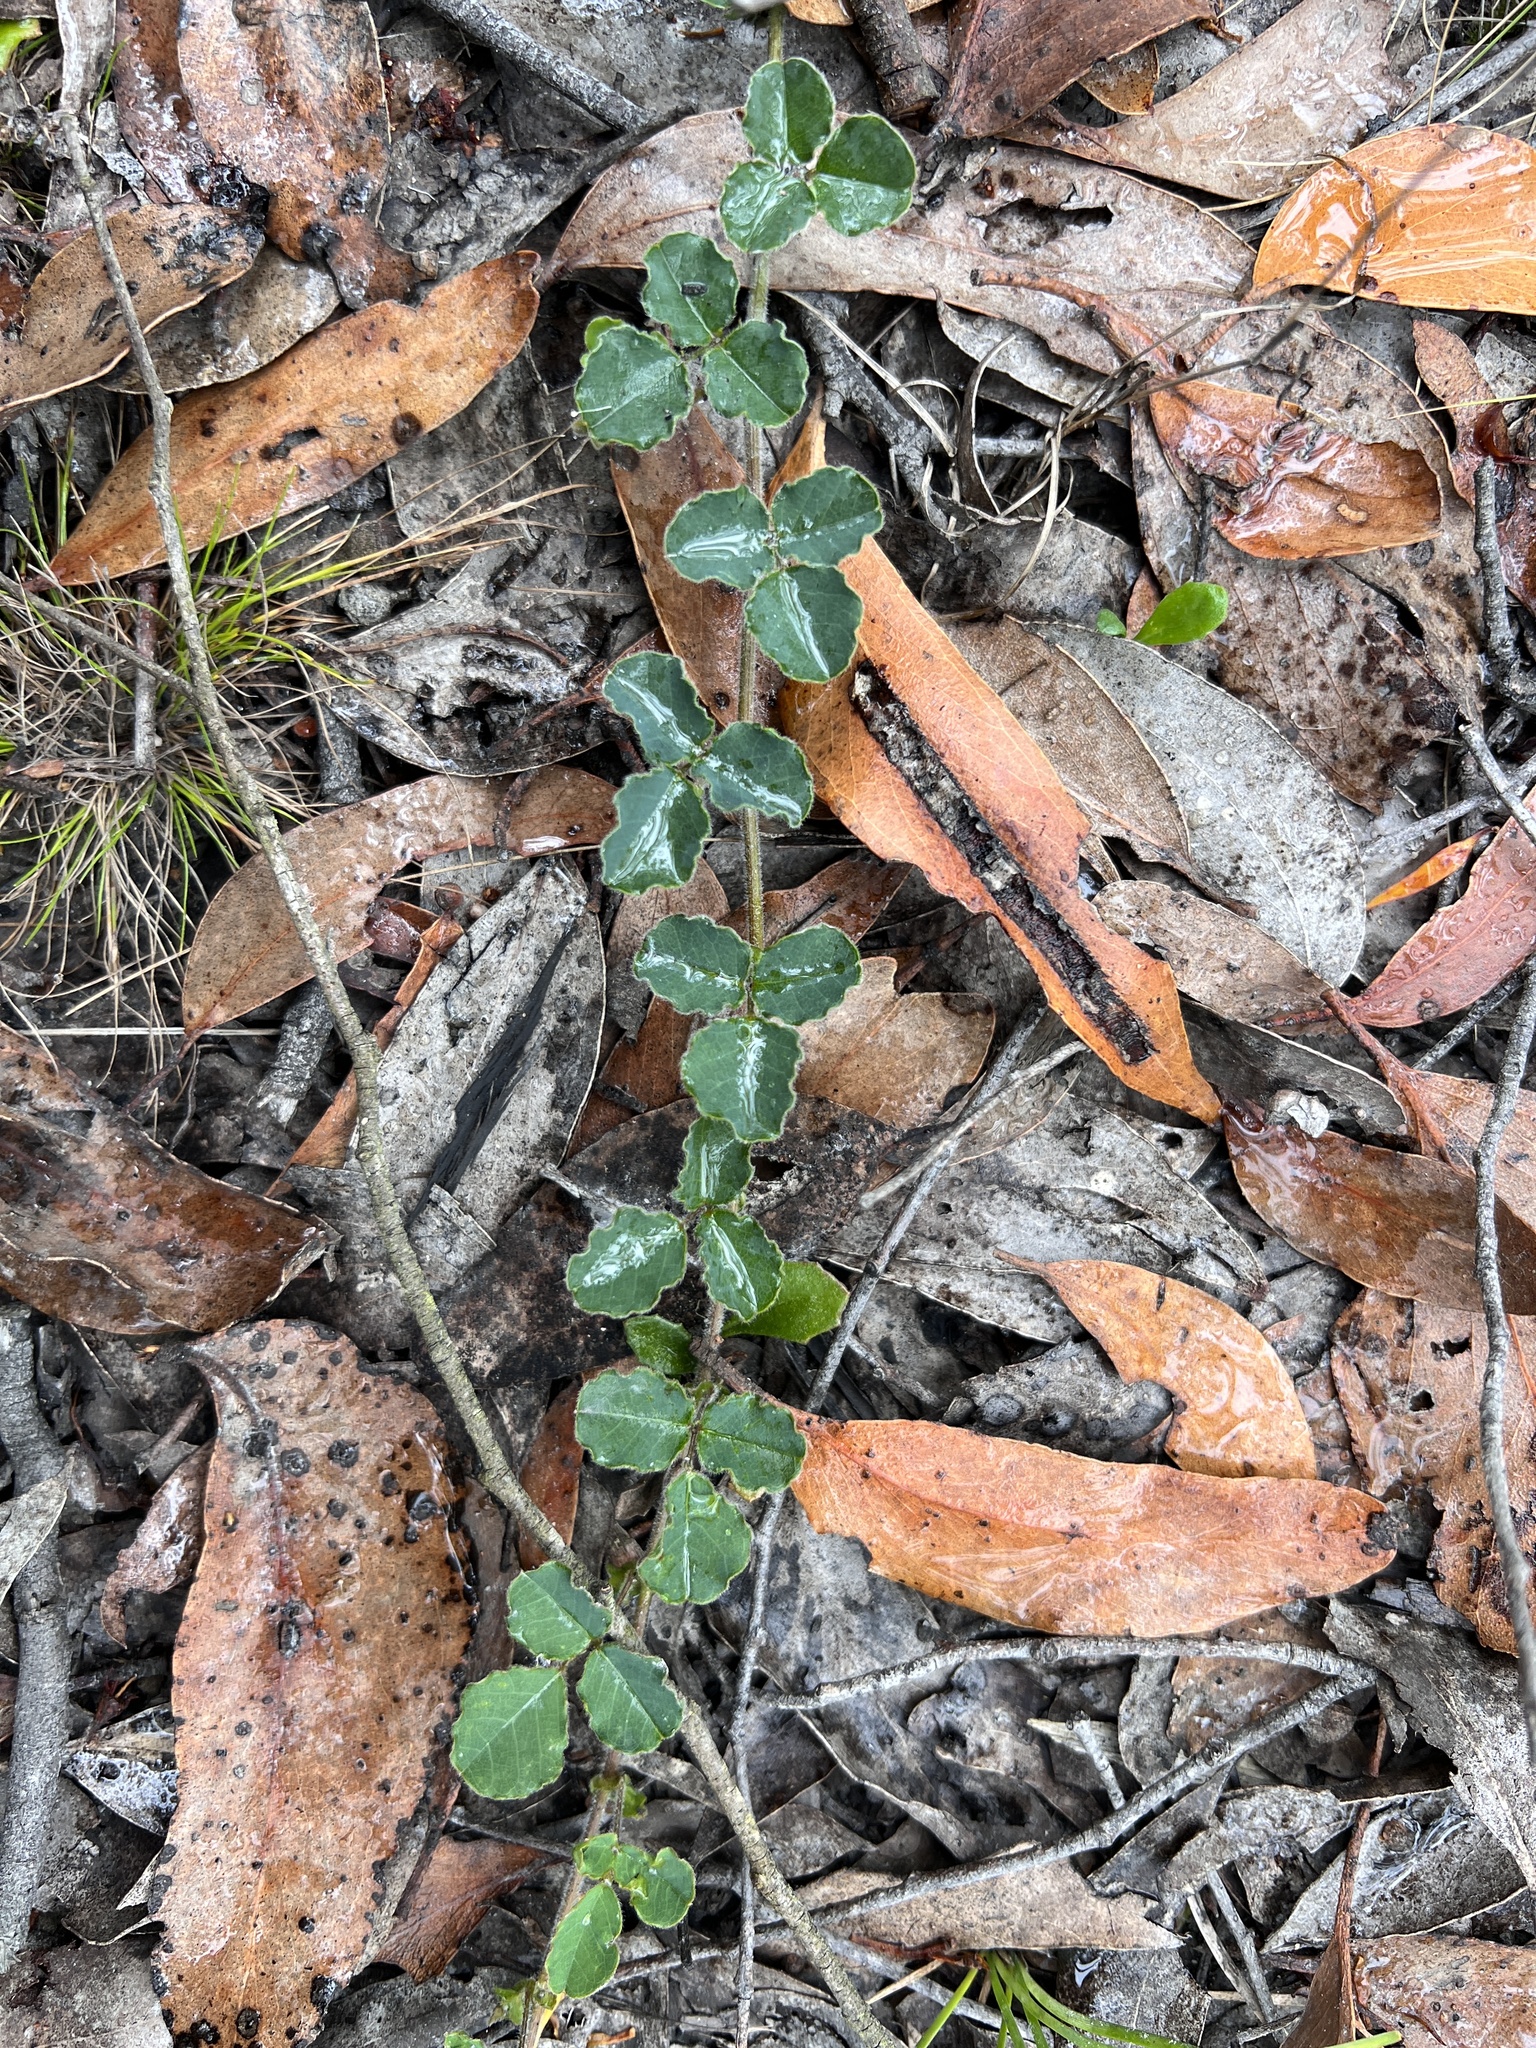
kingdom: Plantae
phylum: Tracheophyta
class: Magnoliopsida
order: Fabales
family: Fabaceae
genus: Kennedia
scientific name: Kennedia prostrata
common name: Running-postman
